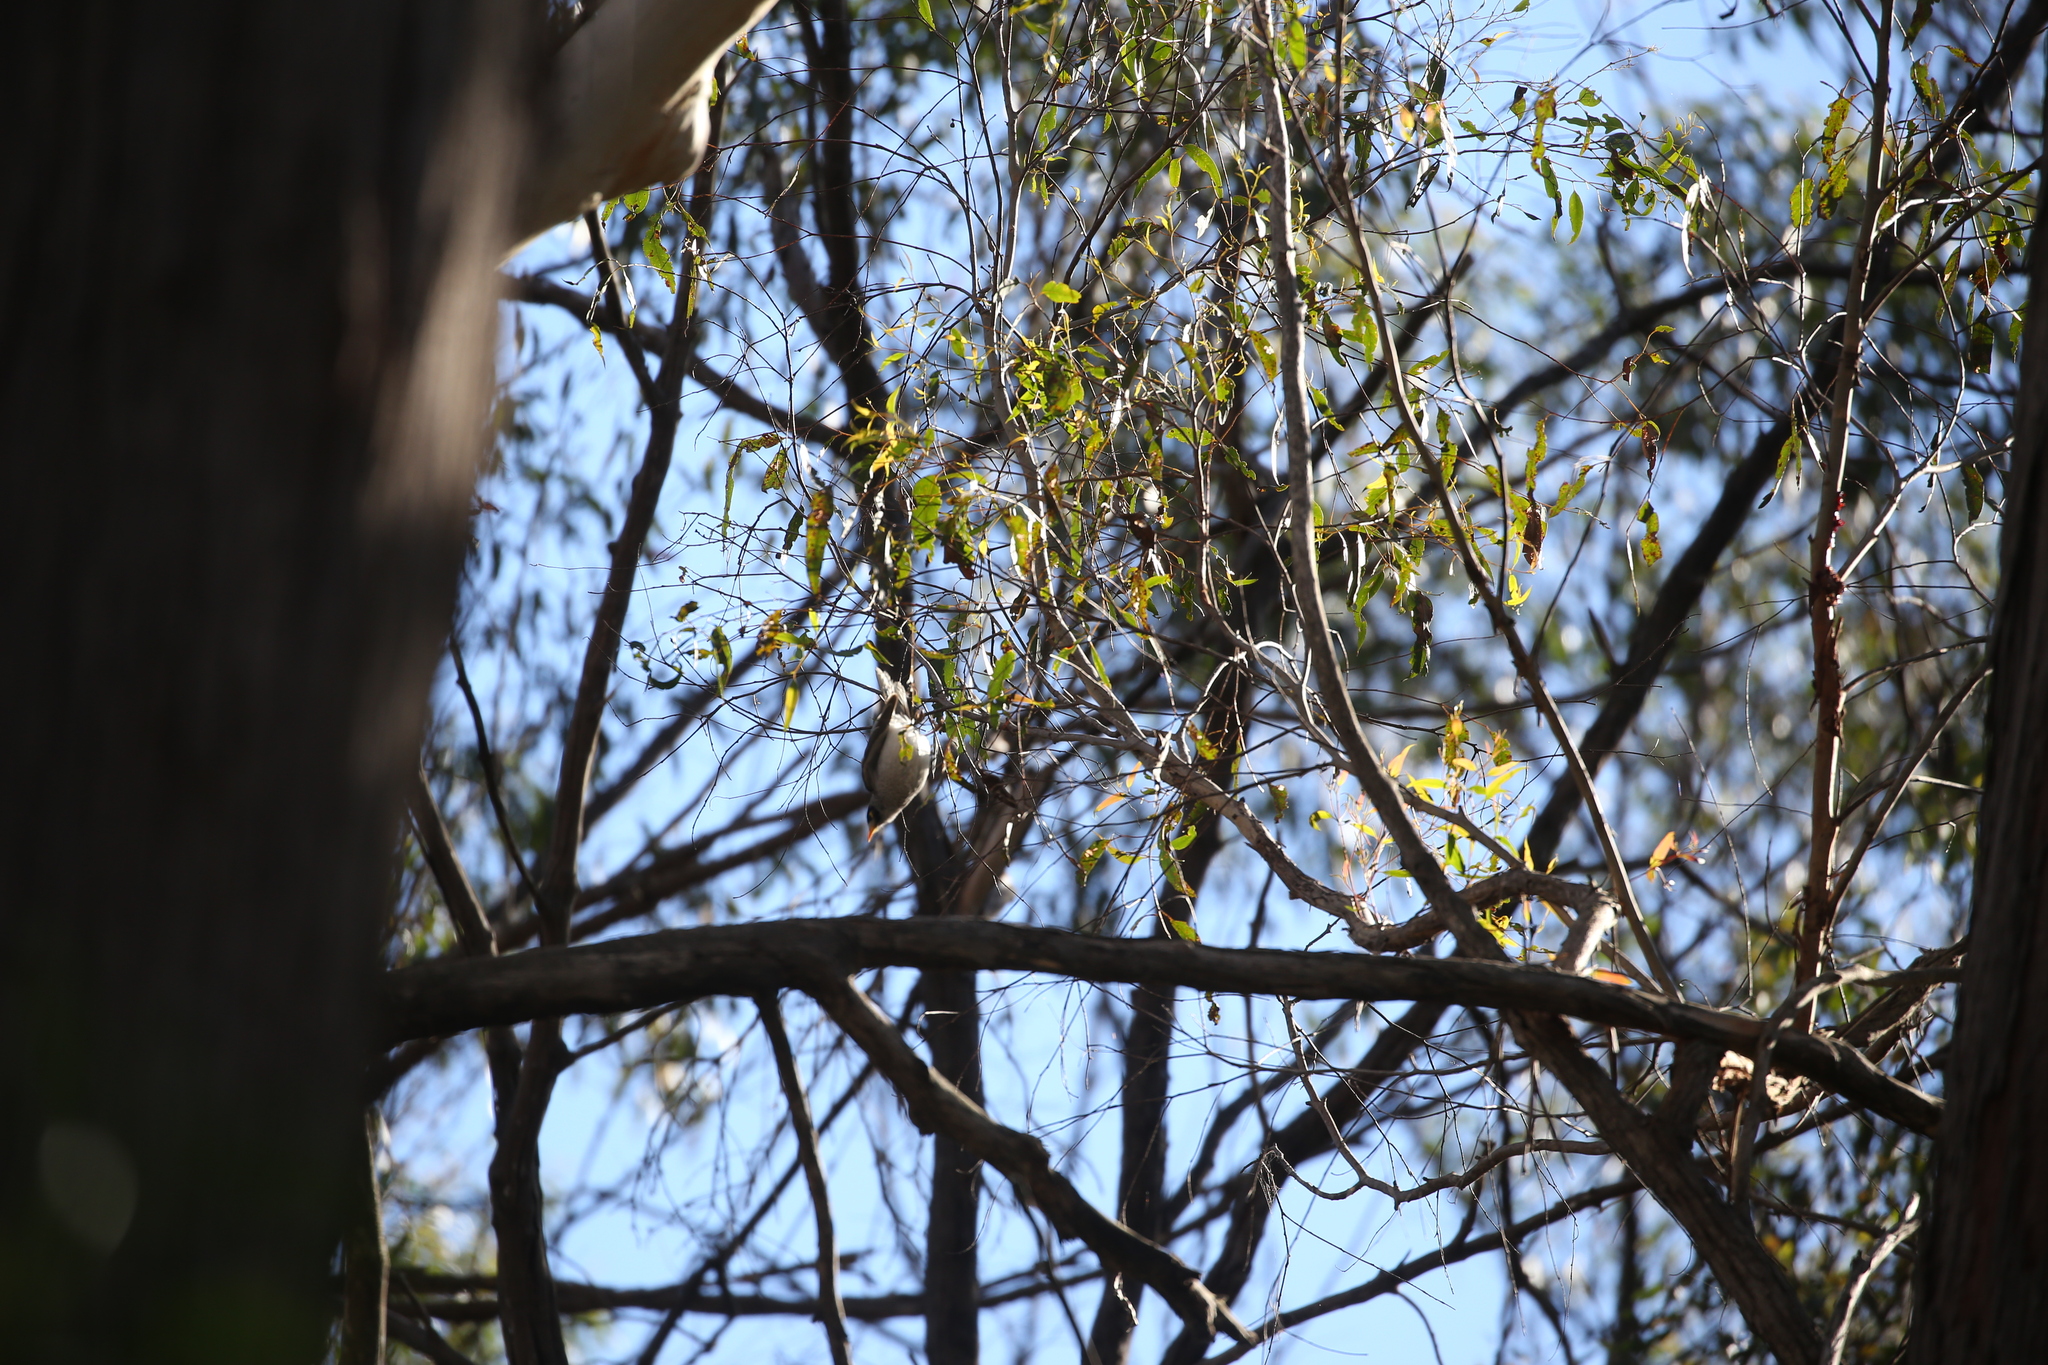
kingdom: Animalia
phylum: Chordata
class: Aves
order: Passeriformes
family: Meliphagidae
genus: Manorina
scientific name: Manorina melanocephala
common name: Noisy miner
